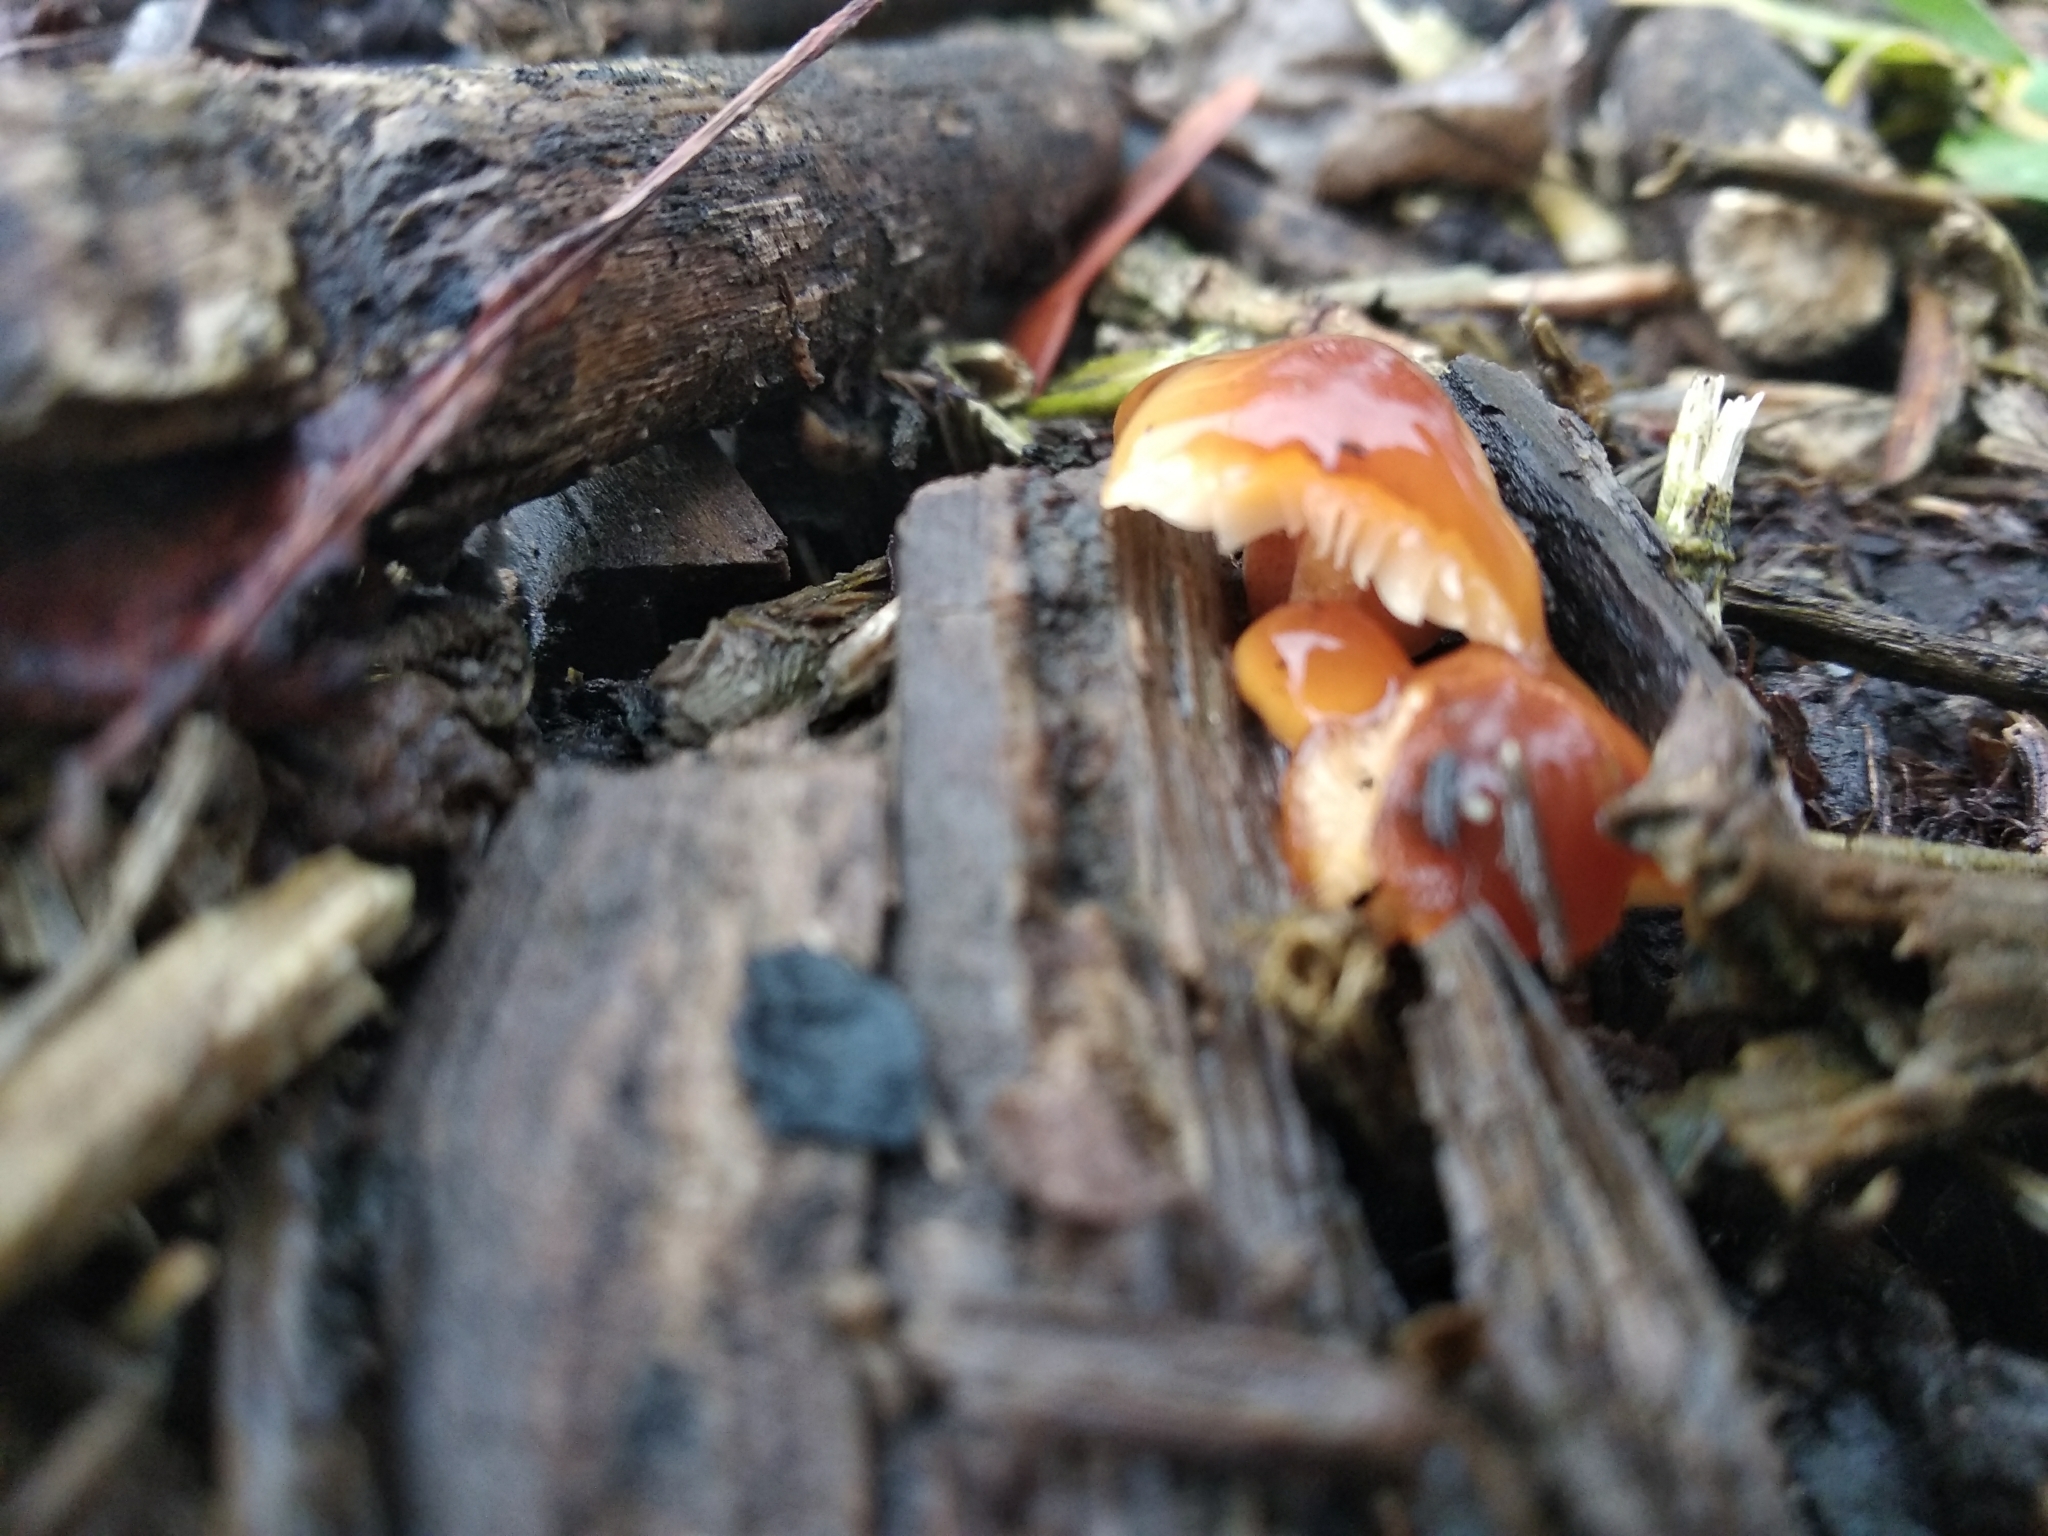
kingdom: Fungi
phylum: Basidiomycota
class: Agaricomycetes
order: Agaricales
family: Physalacriaceae
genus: Flammulina
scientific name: Flammulina
